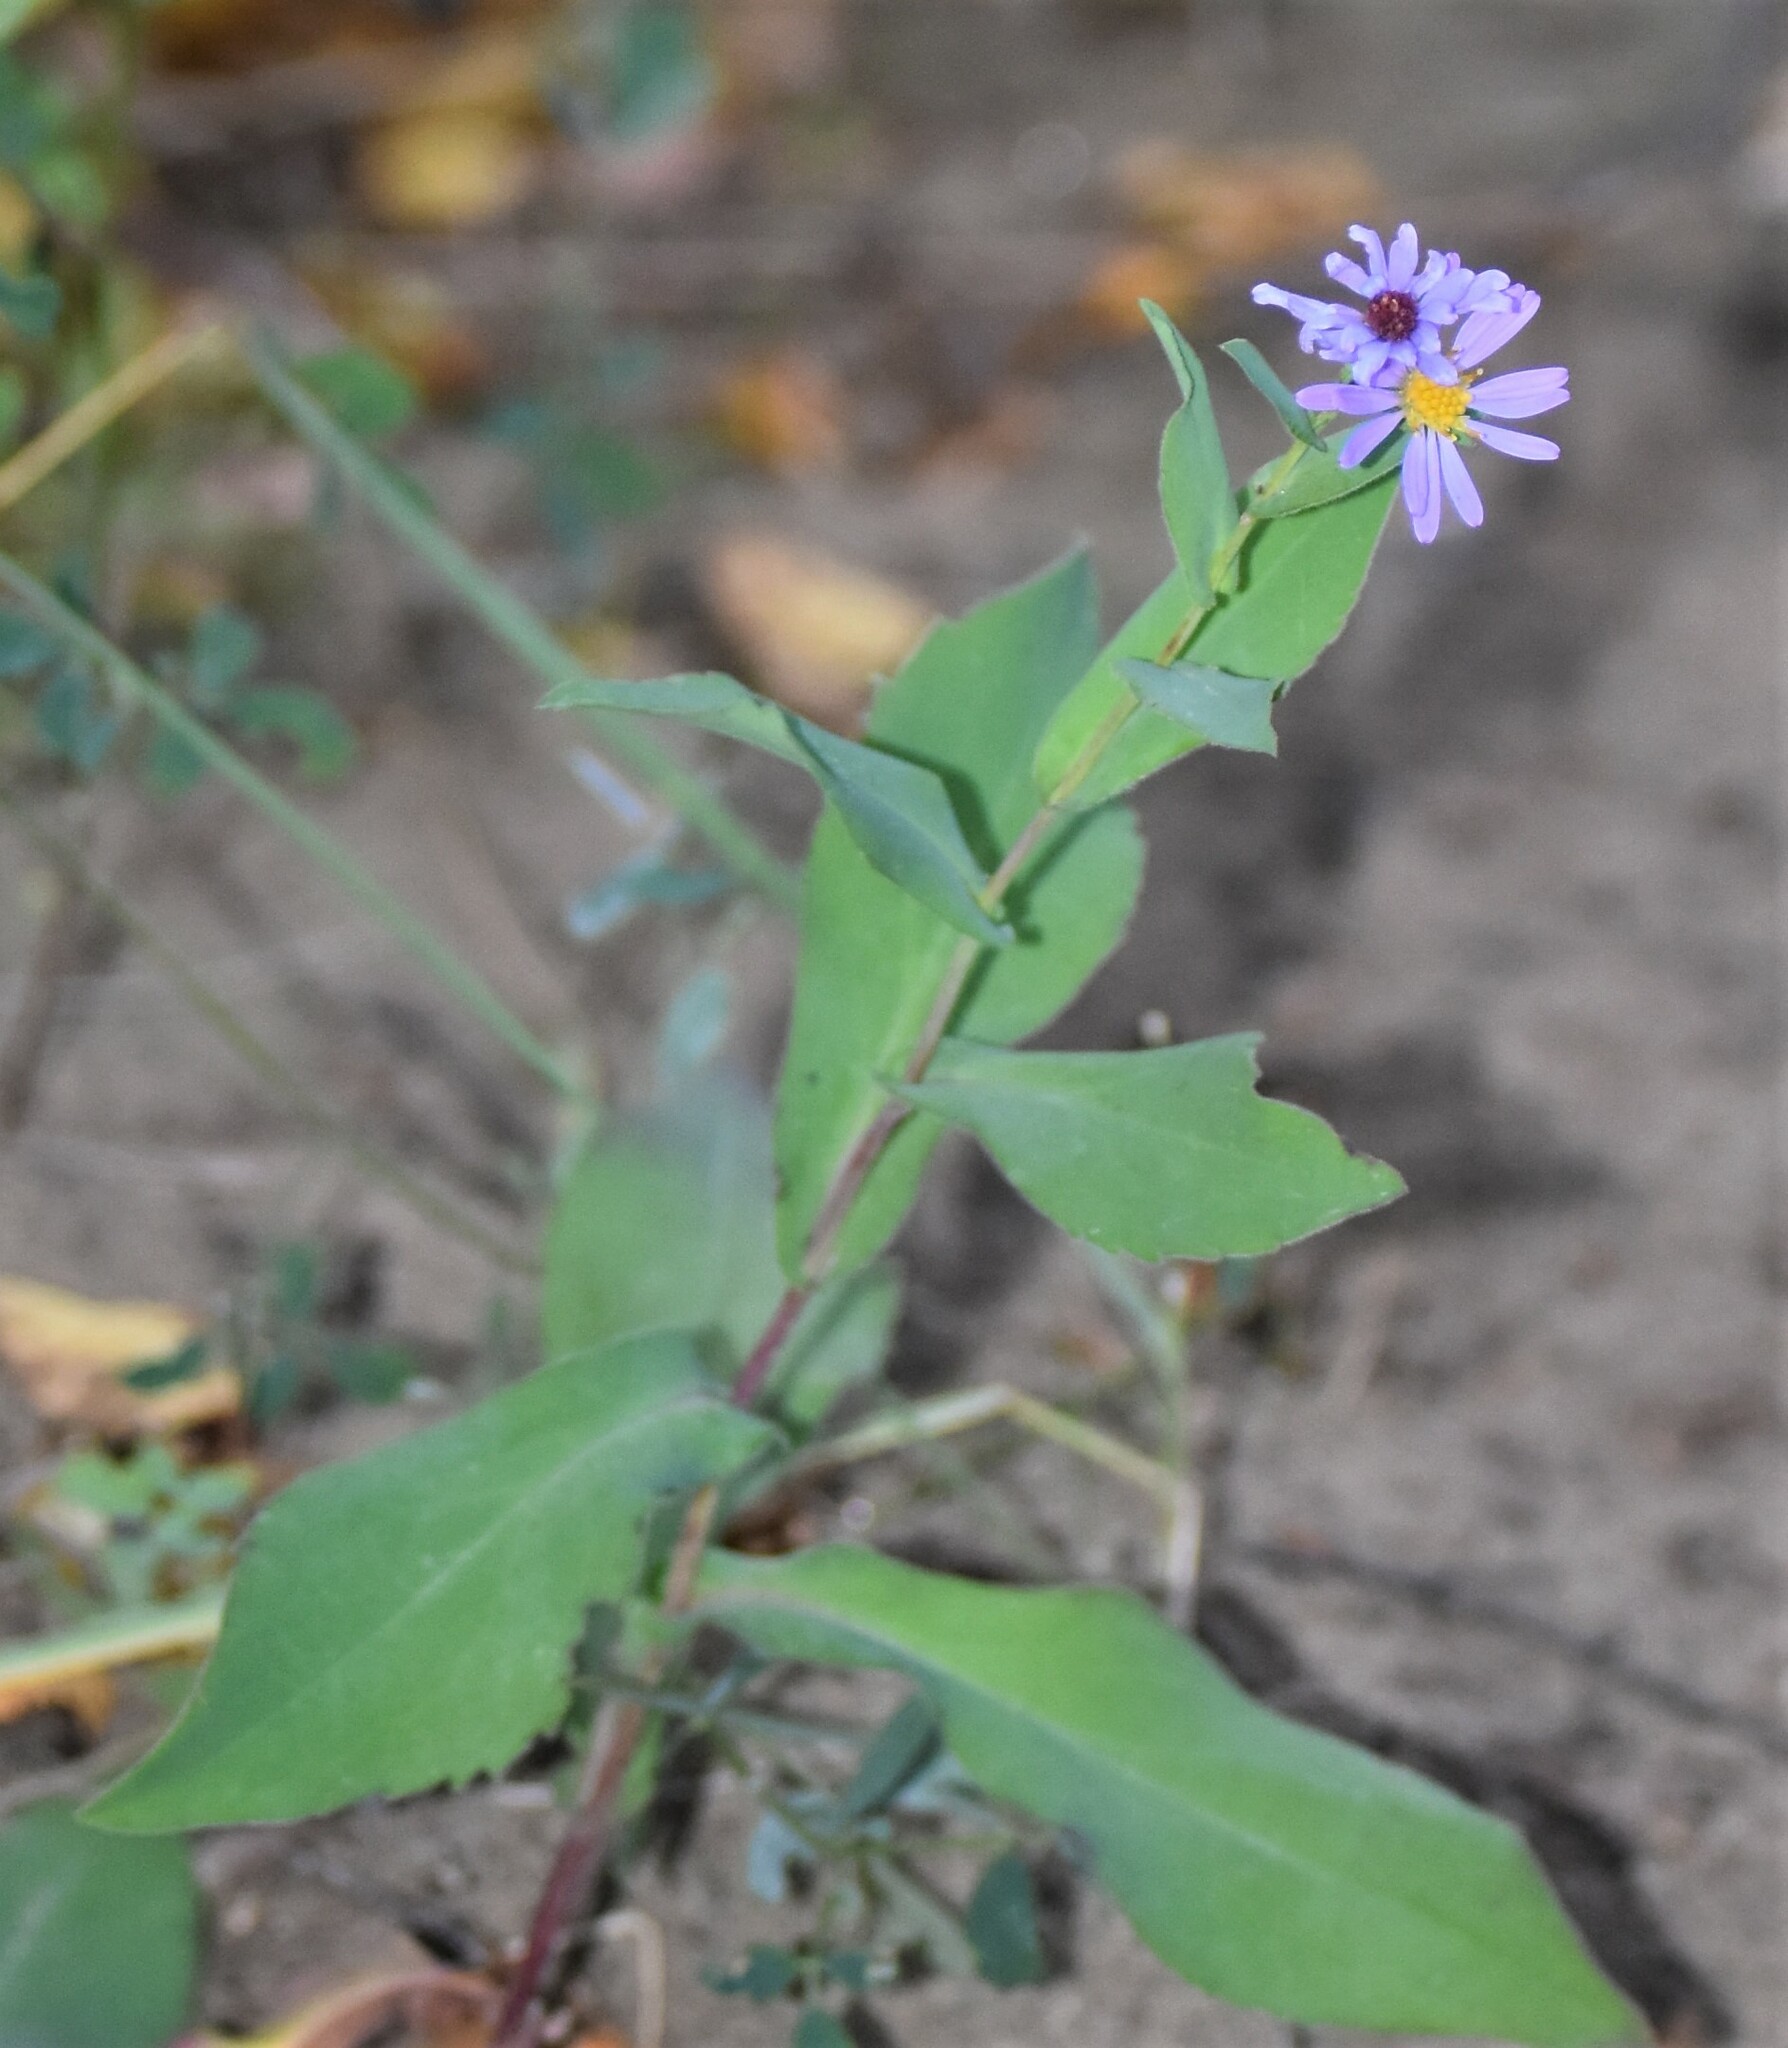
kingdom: Plantae
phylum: Tracheophyta
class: Magnoliopsida
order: Asterales
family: Asteraceae
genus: Symphyotrichum
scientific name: Symphyotrichum laeve
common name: Glaucous aster
